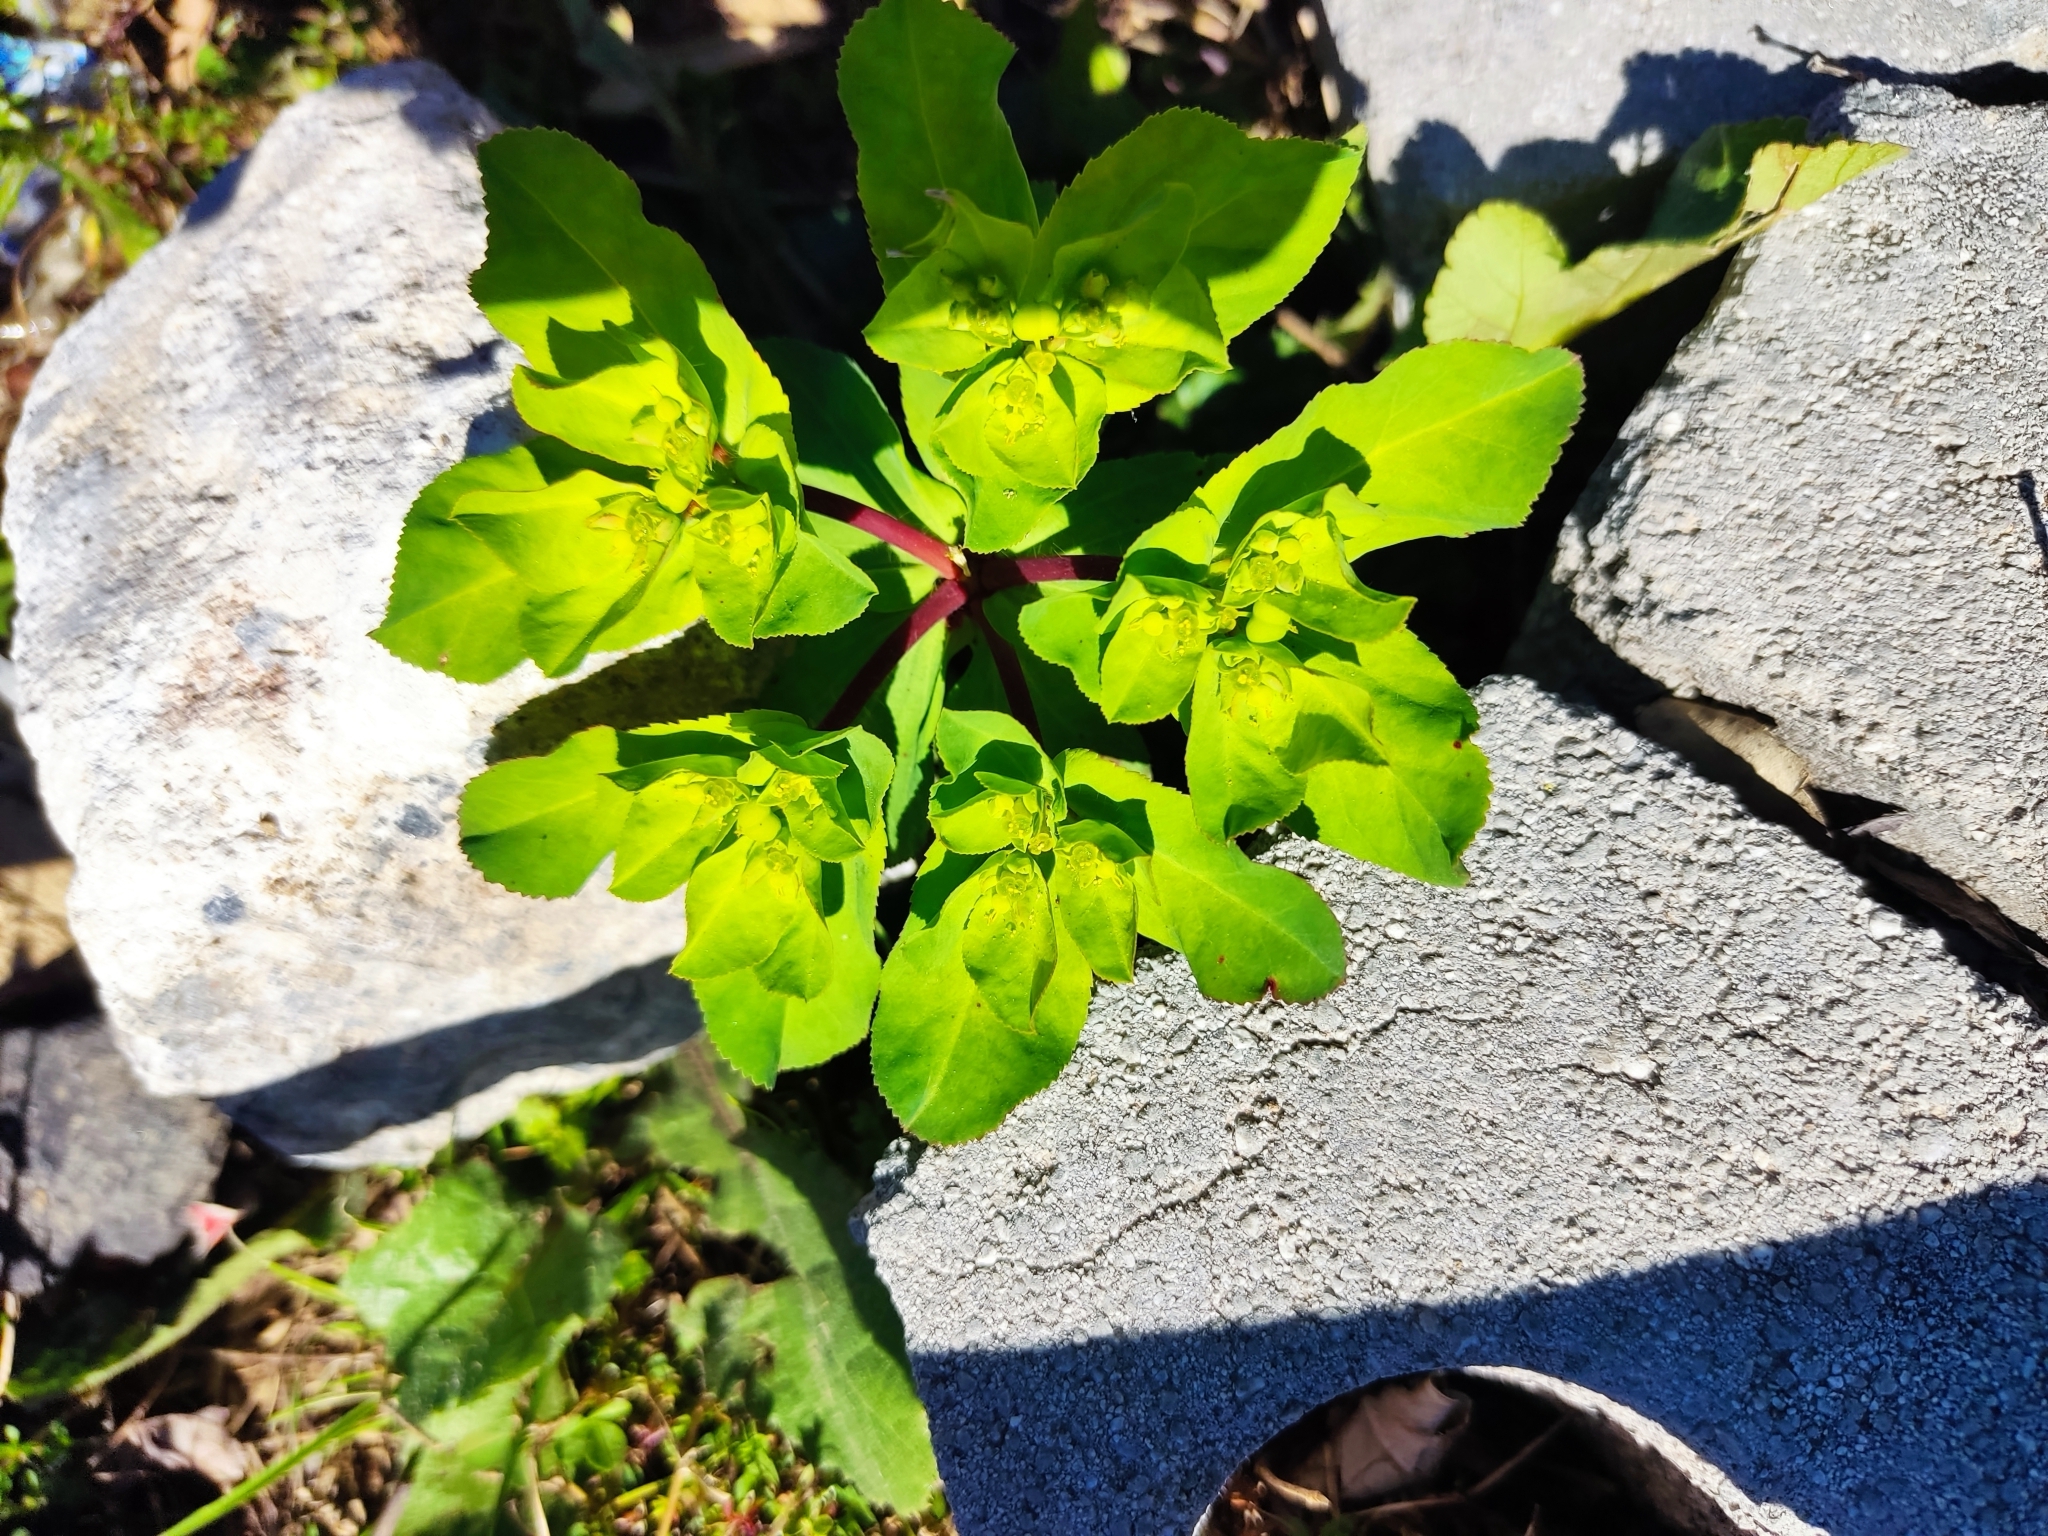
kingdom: Plantae
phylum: Tracheophyta
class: Magnoliopsida
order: Malpighiales
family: Euphorbiaceae
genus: Euphorbia
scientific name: Euphorbia helioscopia
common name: Sun spurge
